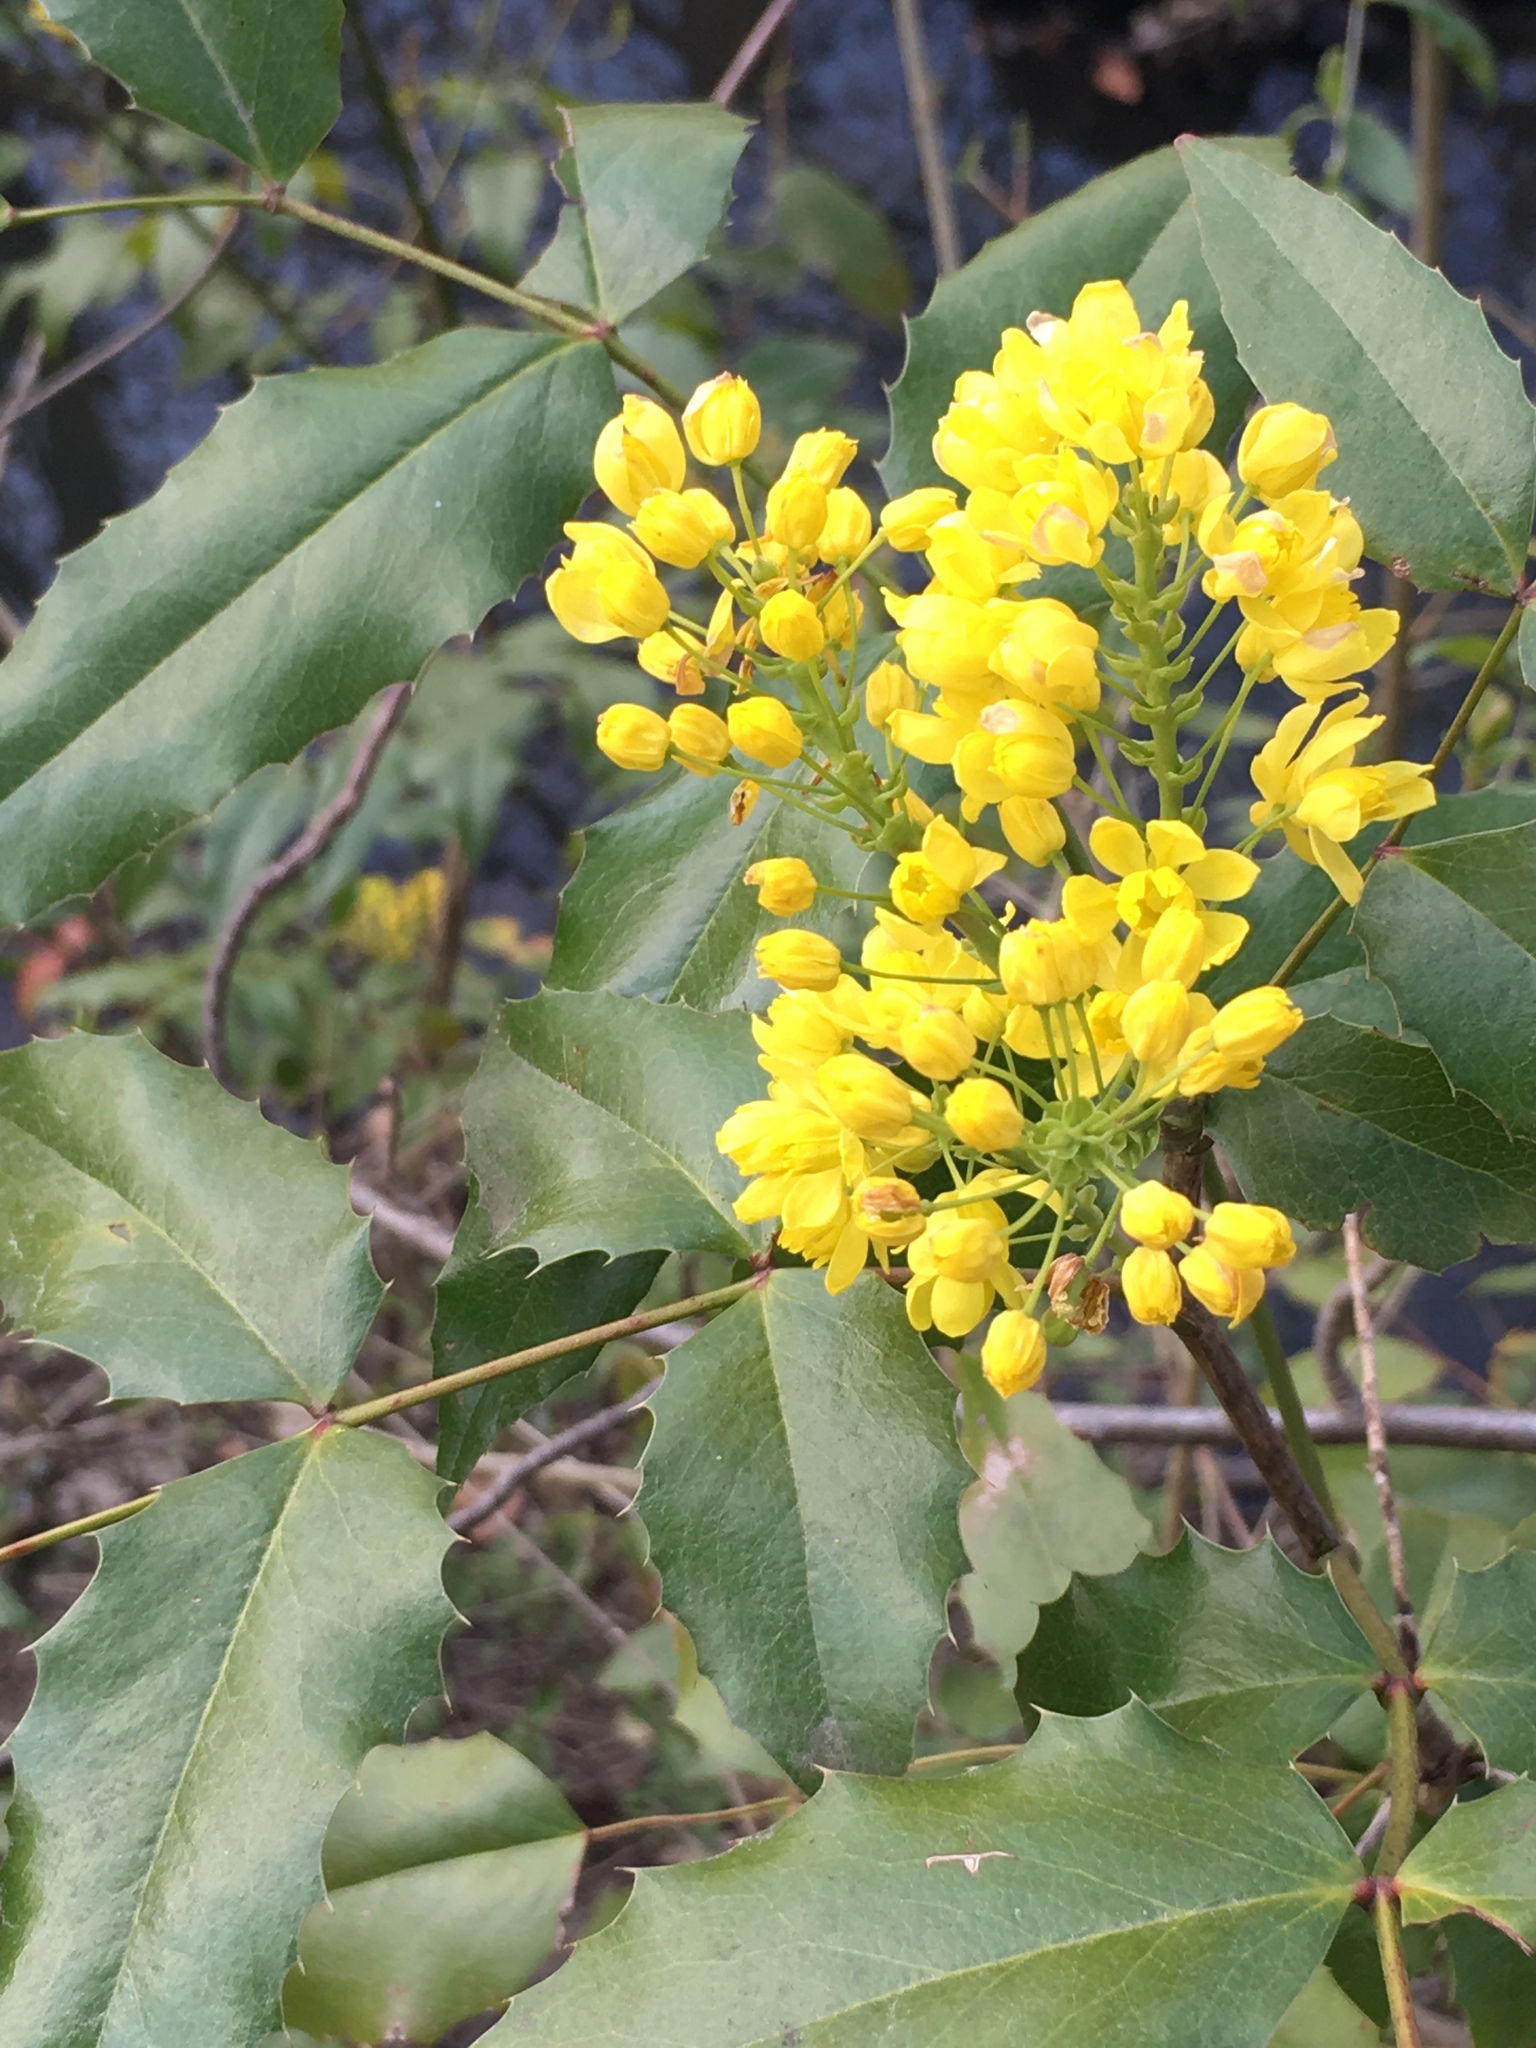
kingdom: Plantae
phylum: Tracheophyta
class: Magnoliopsida
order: Ranunculales
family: Berberidaceae
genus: Mahonia
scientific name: Mahonia aquifolium
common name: Oregon-grape
